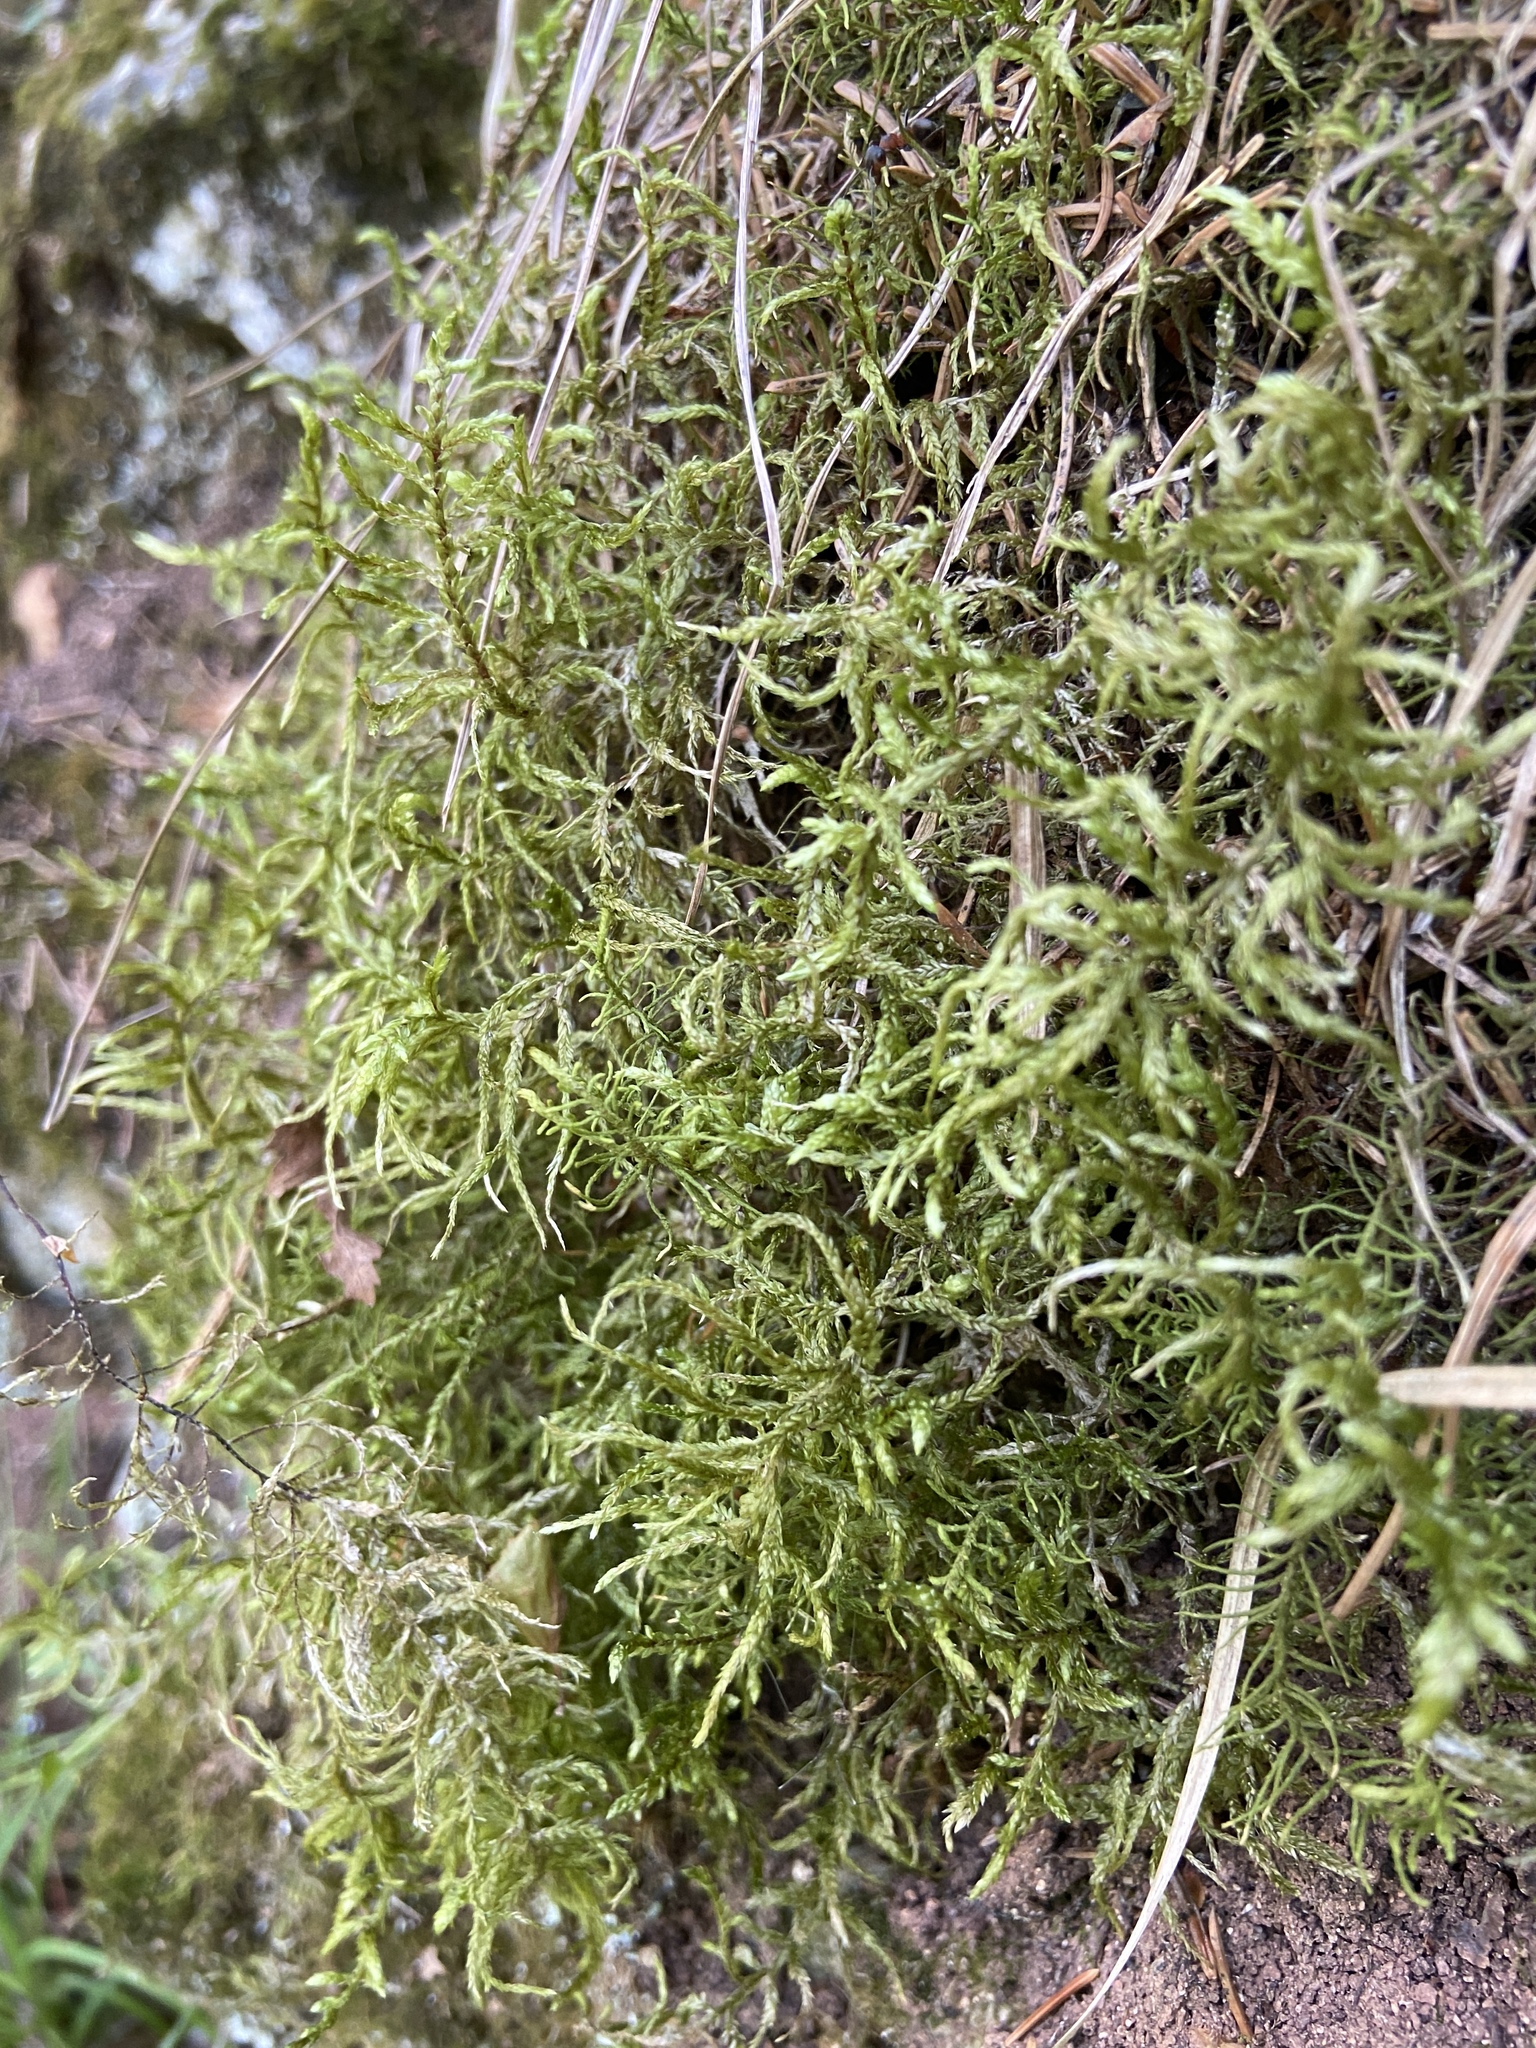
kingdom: Plantae
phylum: Bryophyta
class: Bryopsida
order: Hypnales
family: Hylocomiaceae
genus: Pleurozium
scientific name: Pleurozium schreberi
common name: Red-stemmed feather moss
